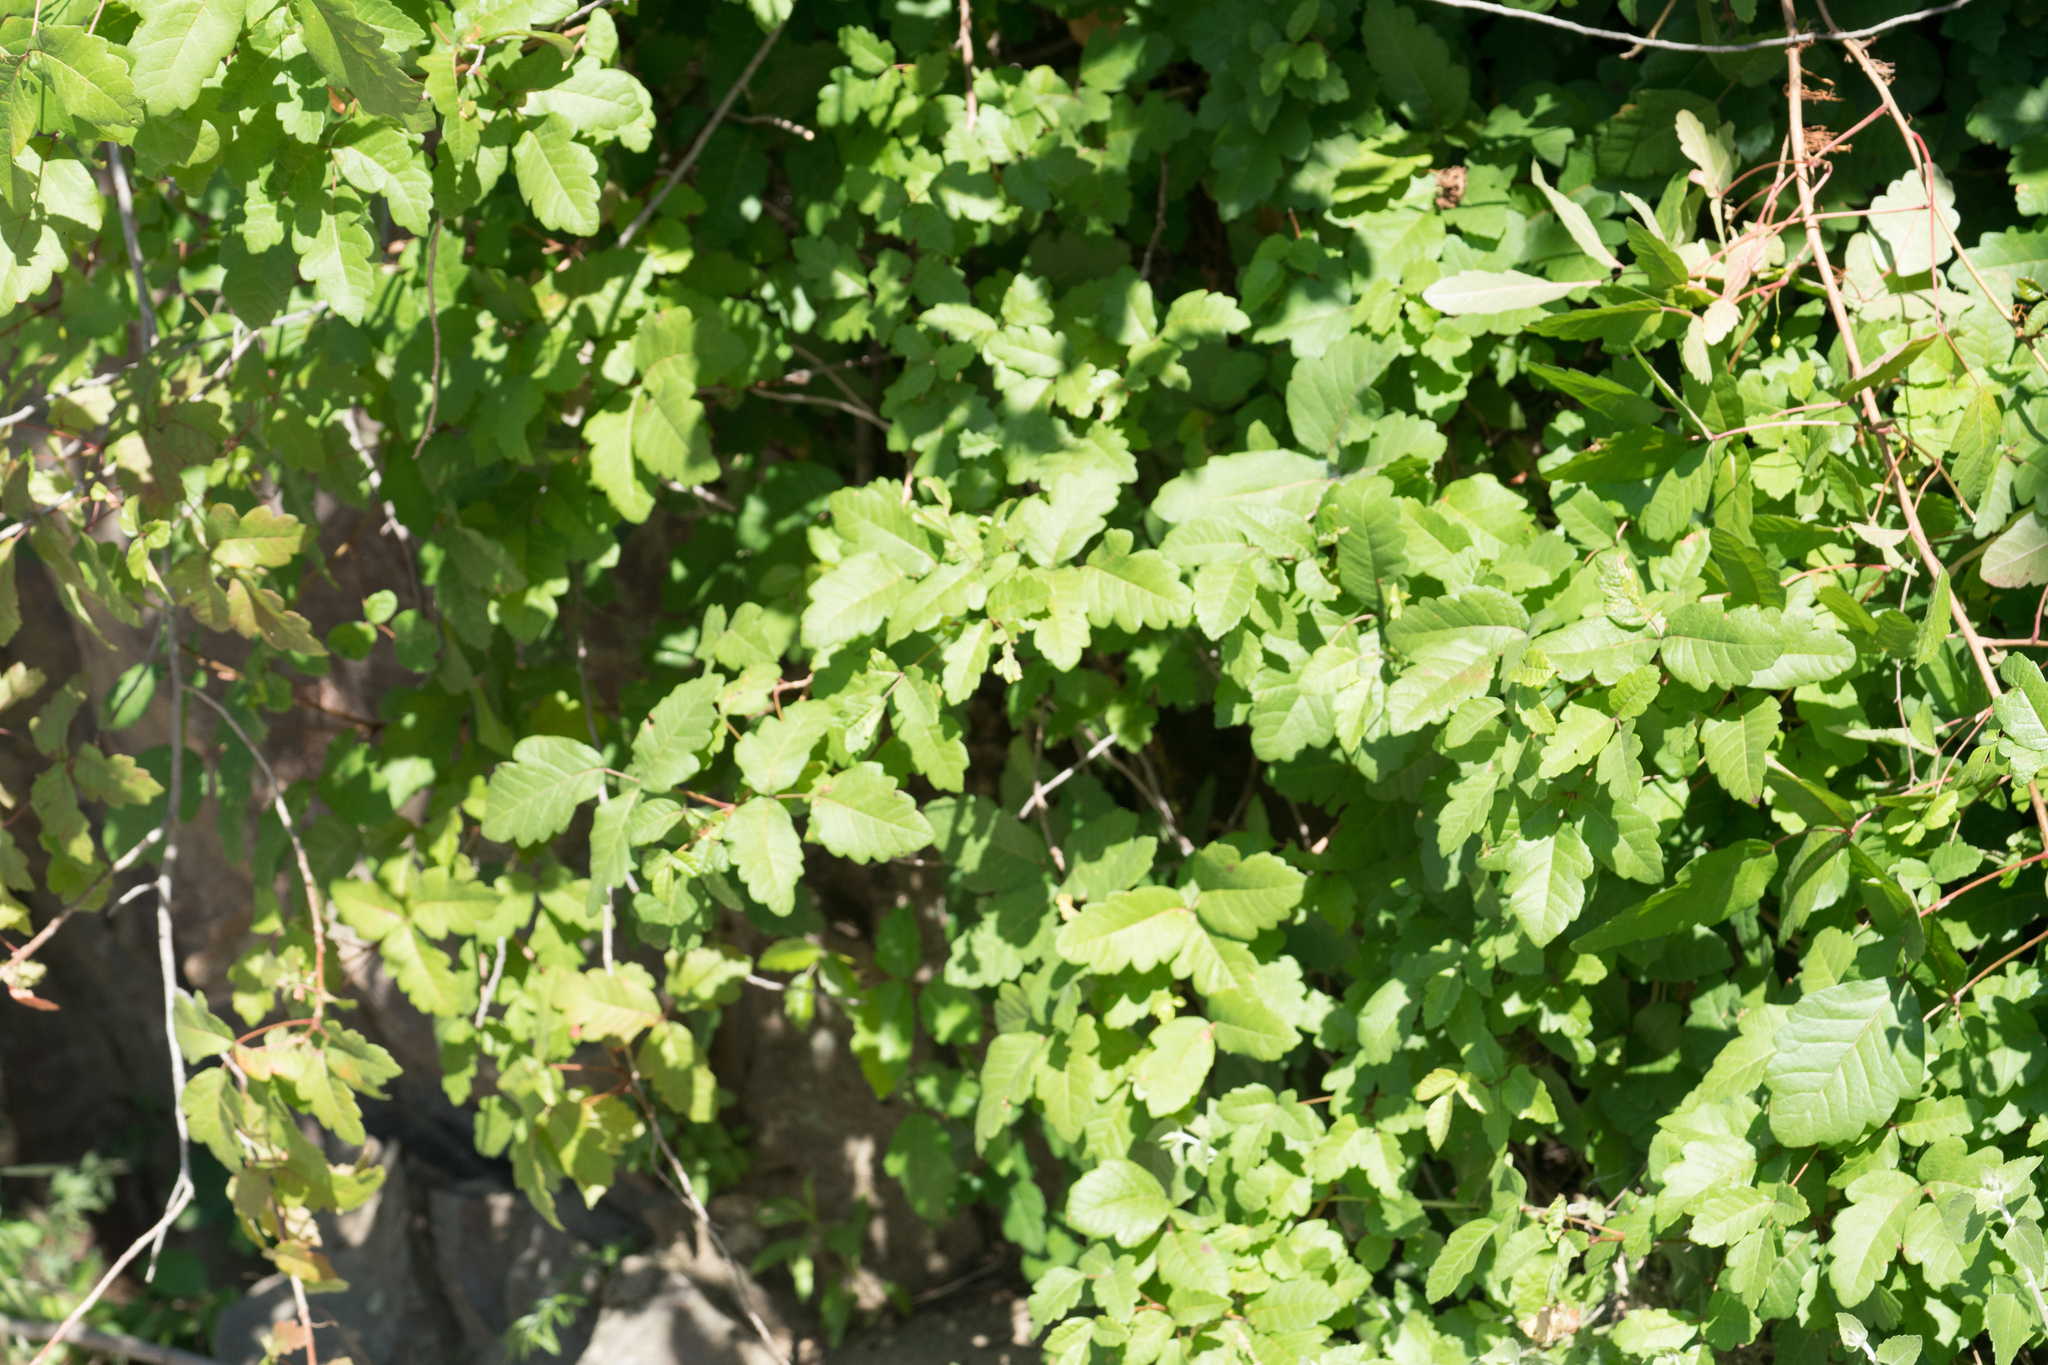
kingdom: Plantae
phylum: Tracheophyta
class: Magnoliopsida
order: Sapindales
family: Anacardiaceae
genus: Toxicodendron
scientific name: Toxicodendron diversilobum
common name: Pacific poison-oak
